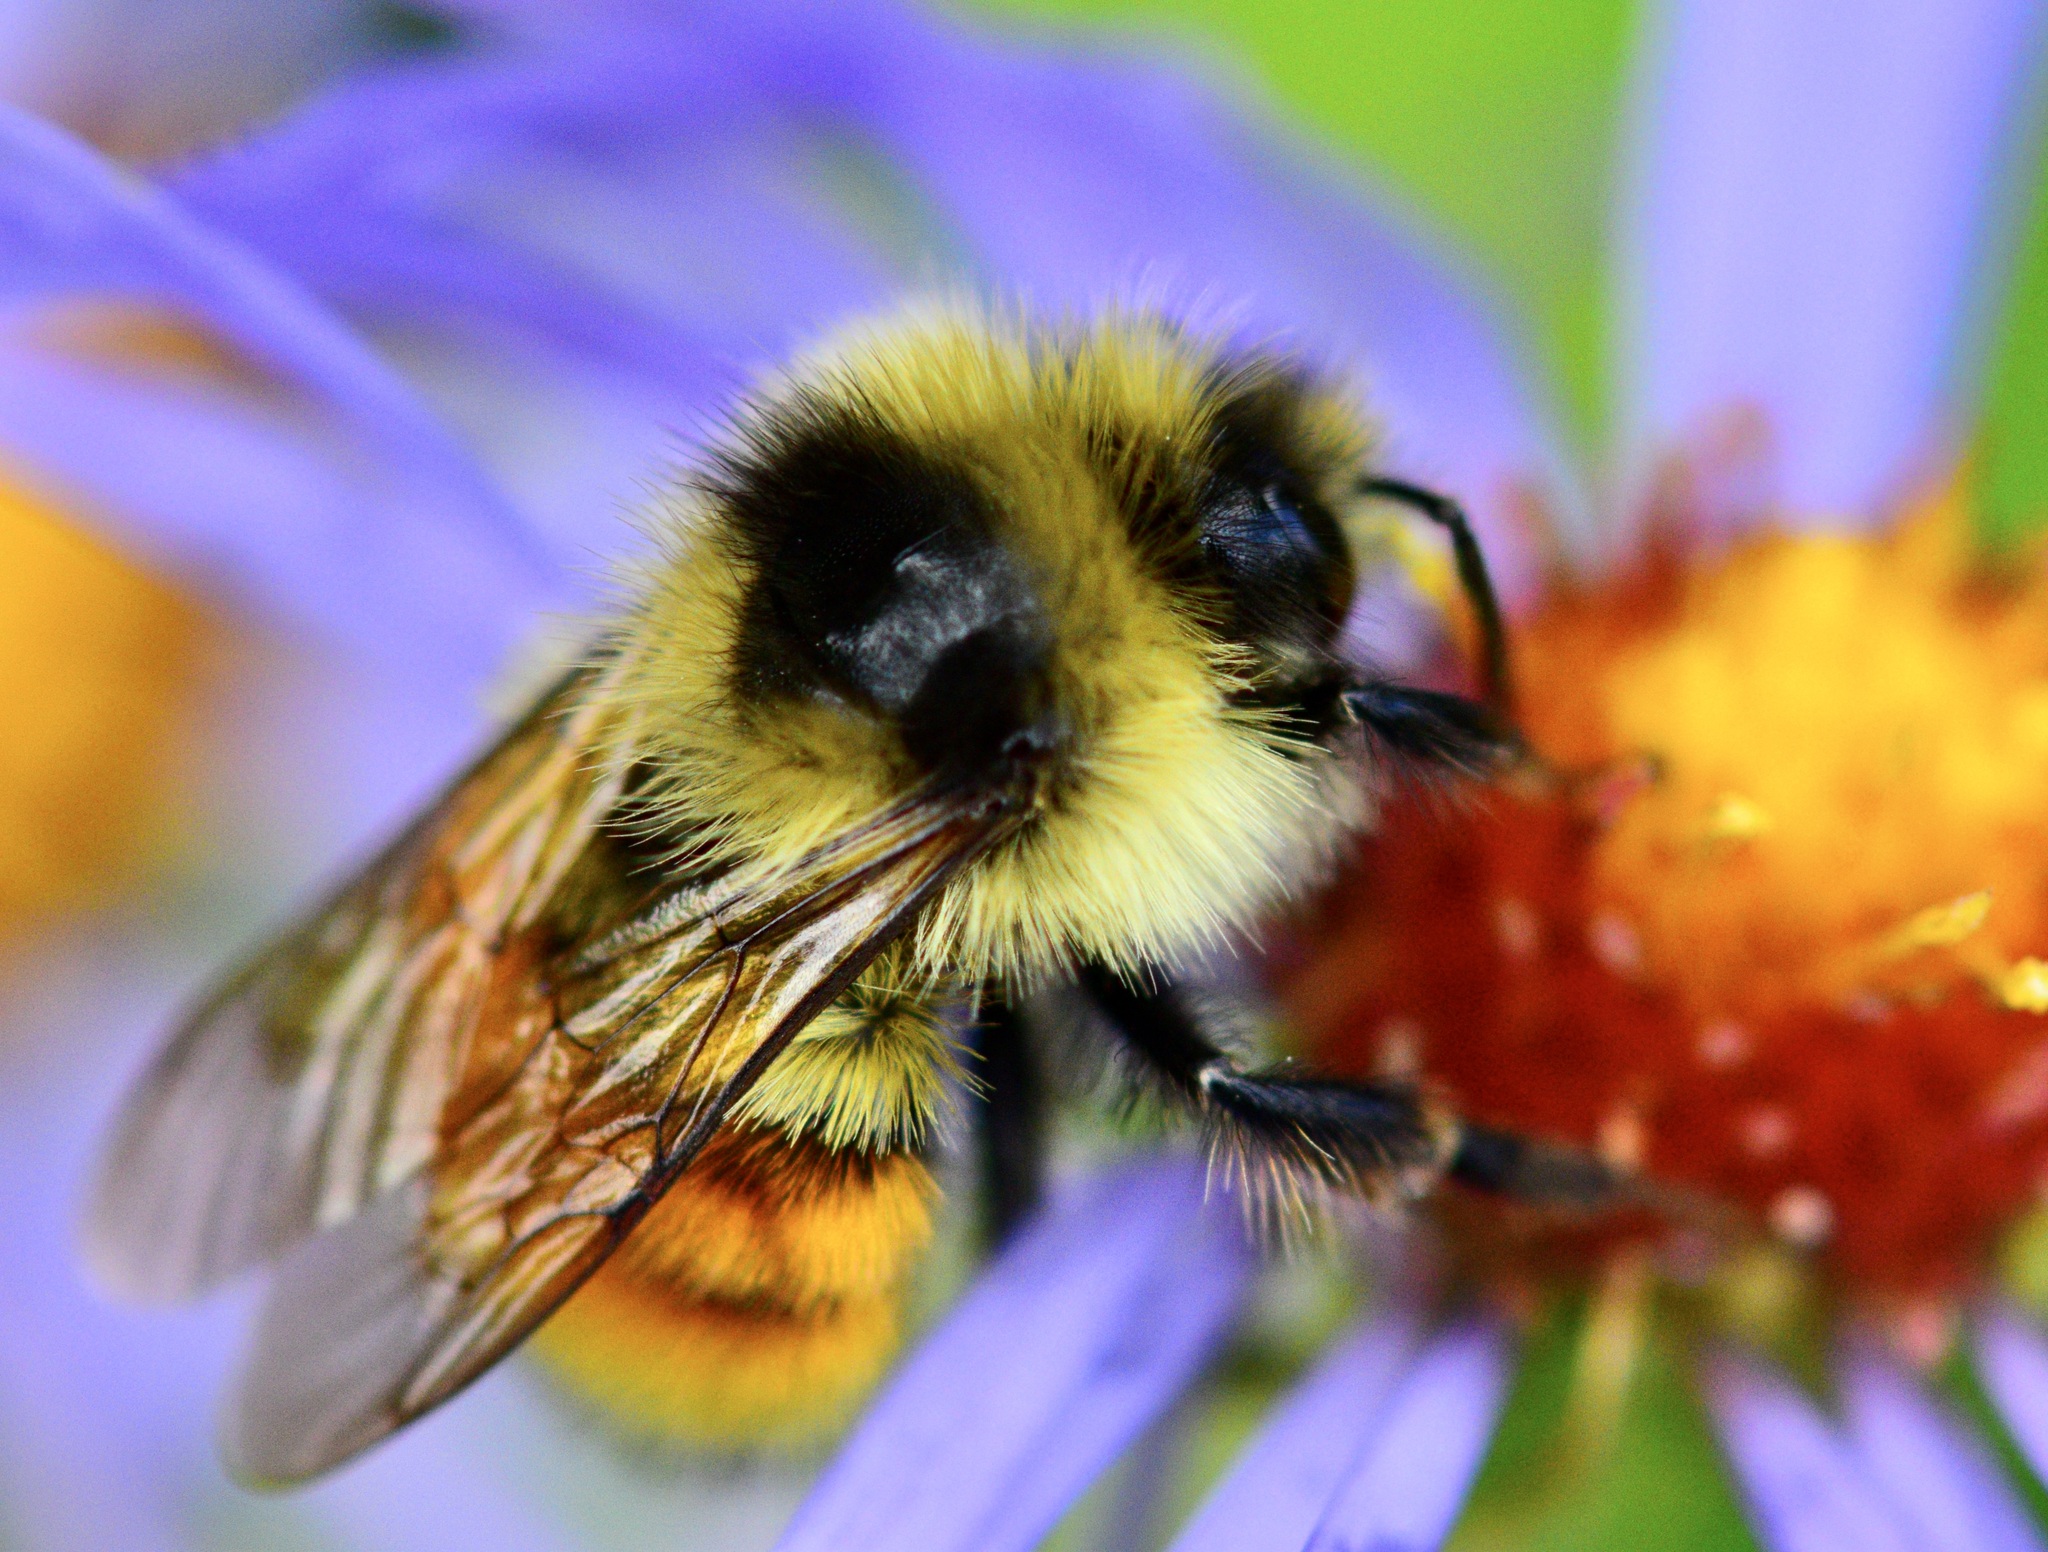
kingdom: Animalia
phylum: Arthropoda
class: Insecta
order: Hymenoptera
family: Apidae
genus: Bombus
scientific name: Bombus ternarius
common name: Tri-colored bumble bee
